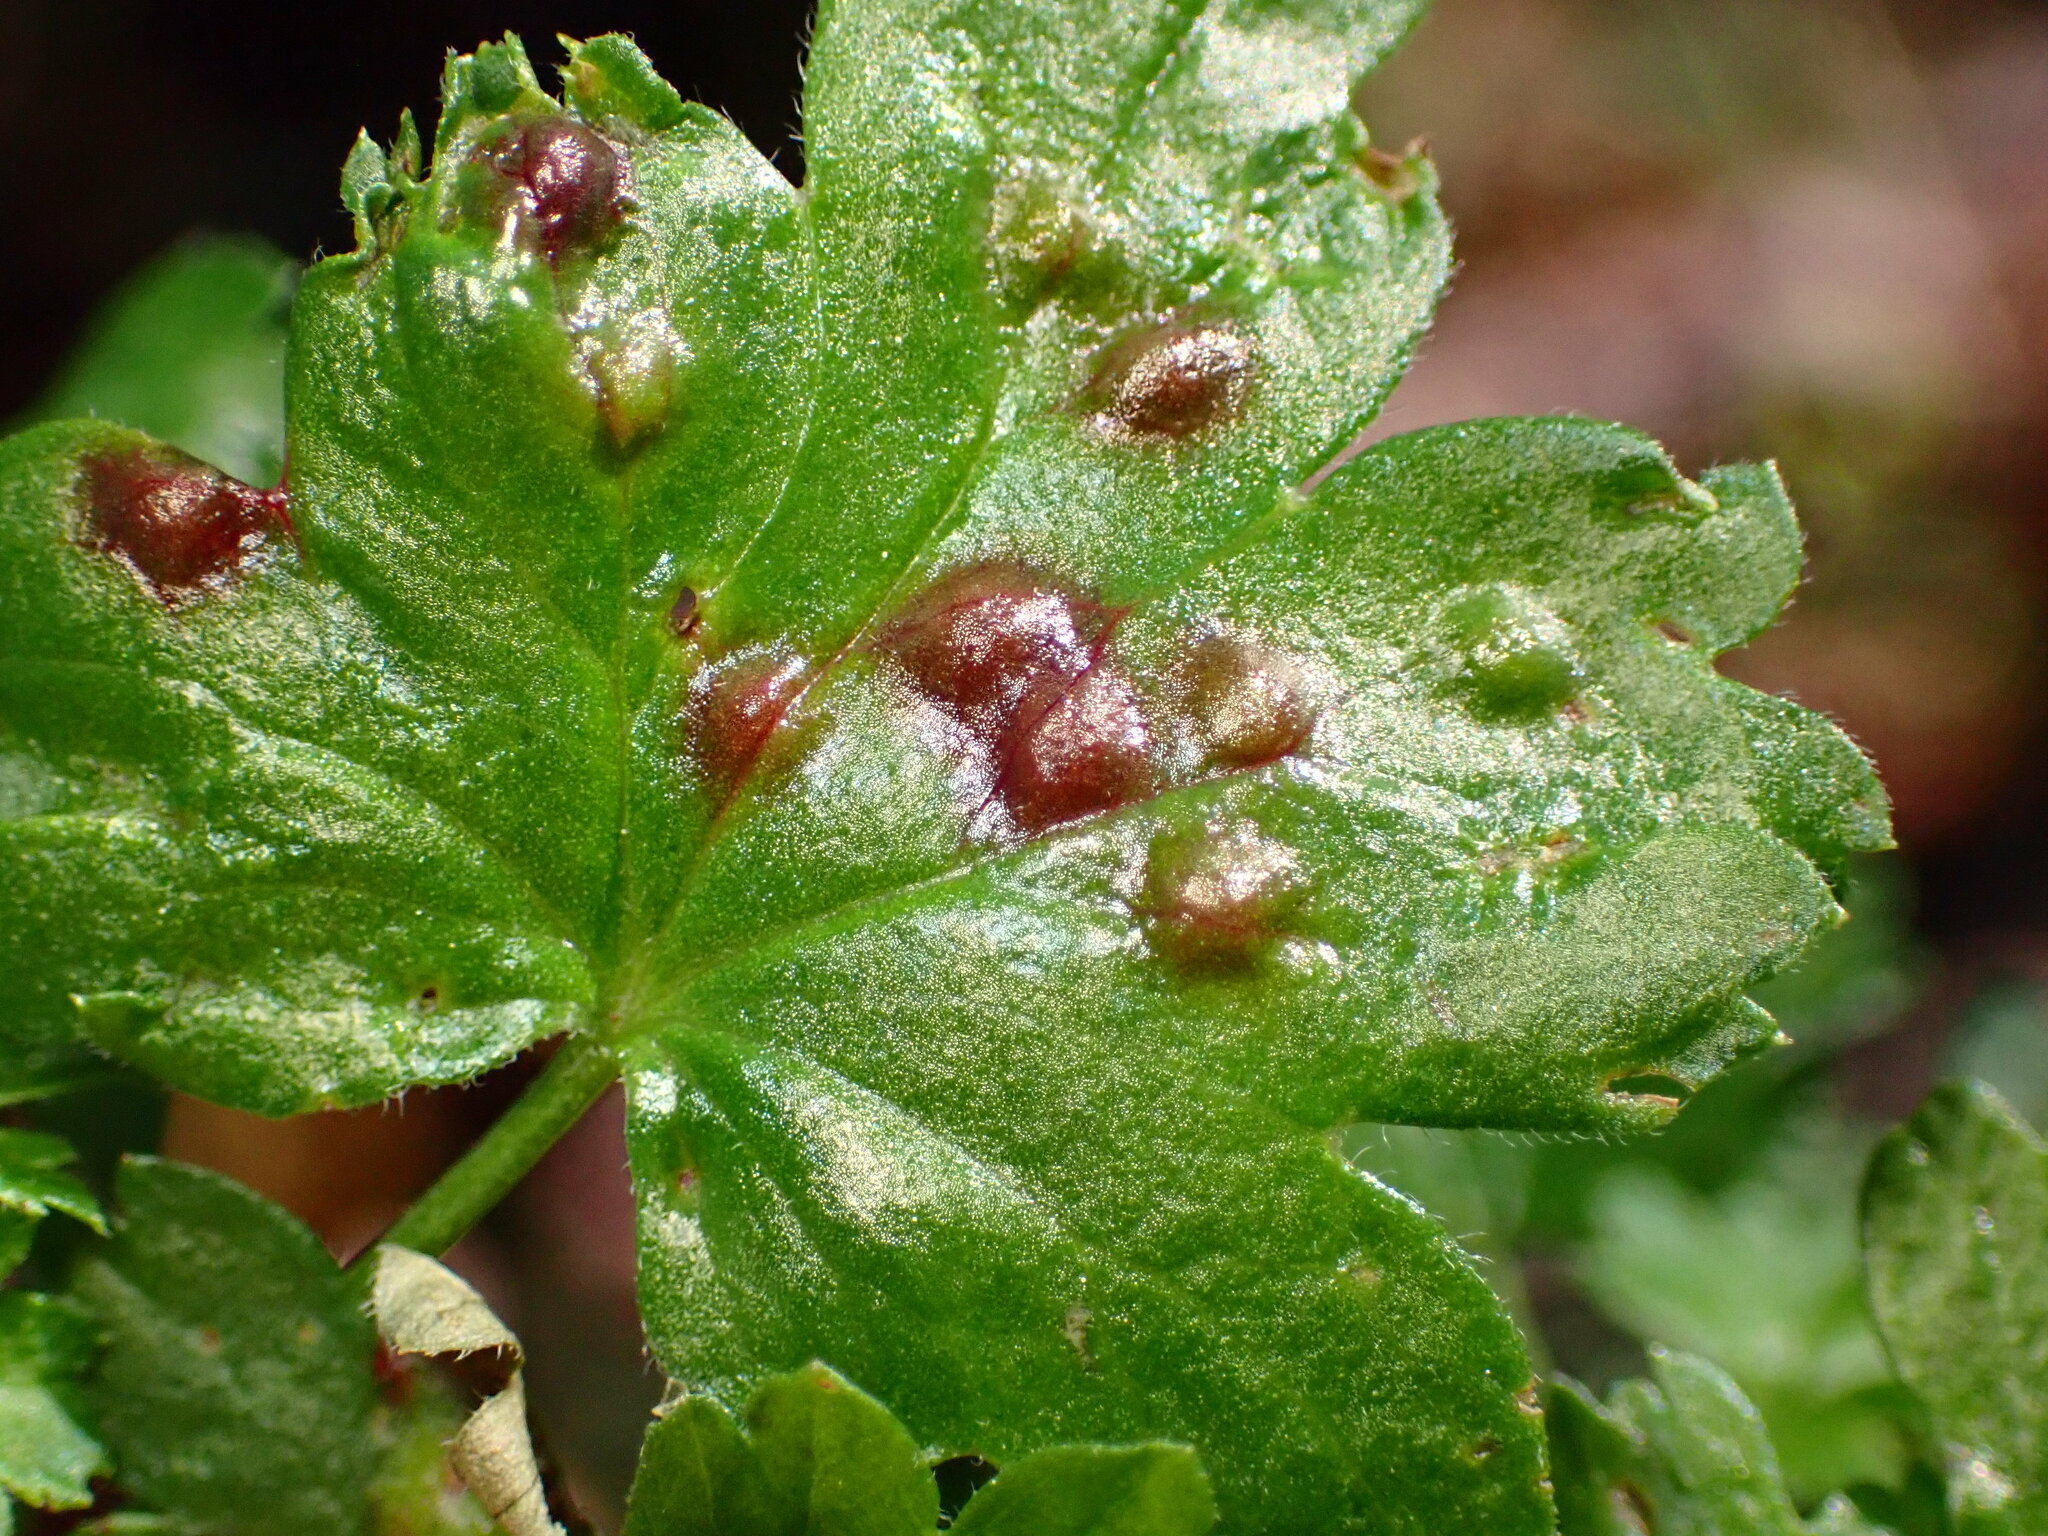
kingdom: Animalia
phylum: Arthropoda
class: Insecta
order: Diptera
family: Cecidomyiidae
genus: Ribesia
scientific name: Ribesia sarae
